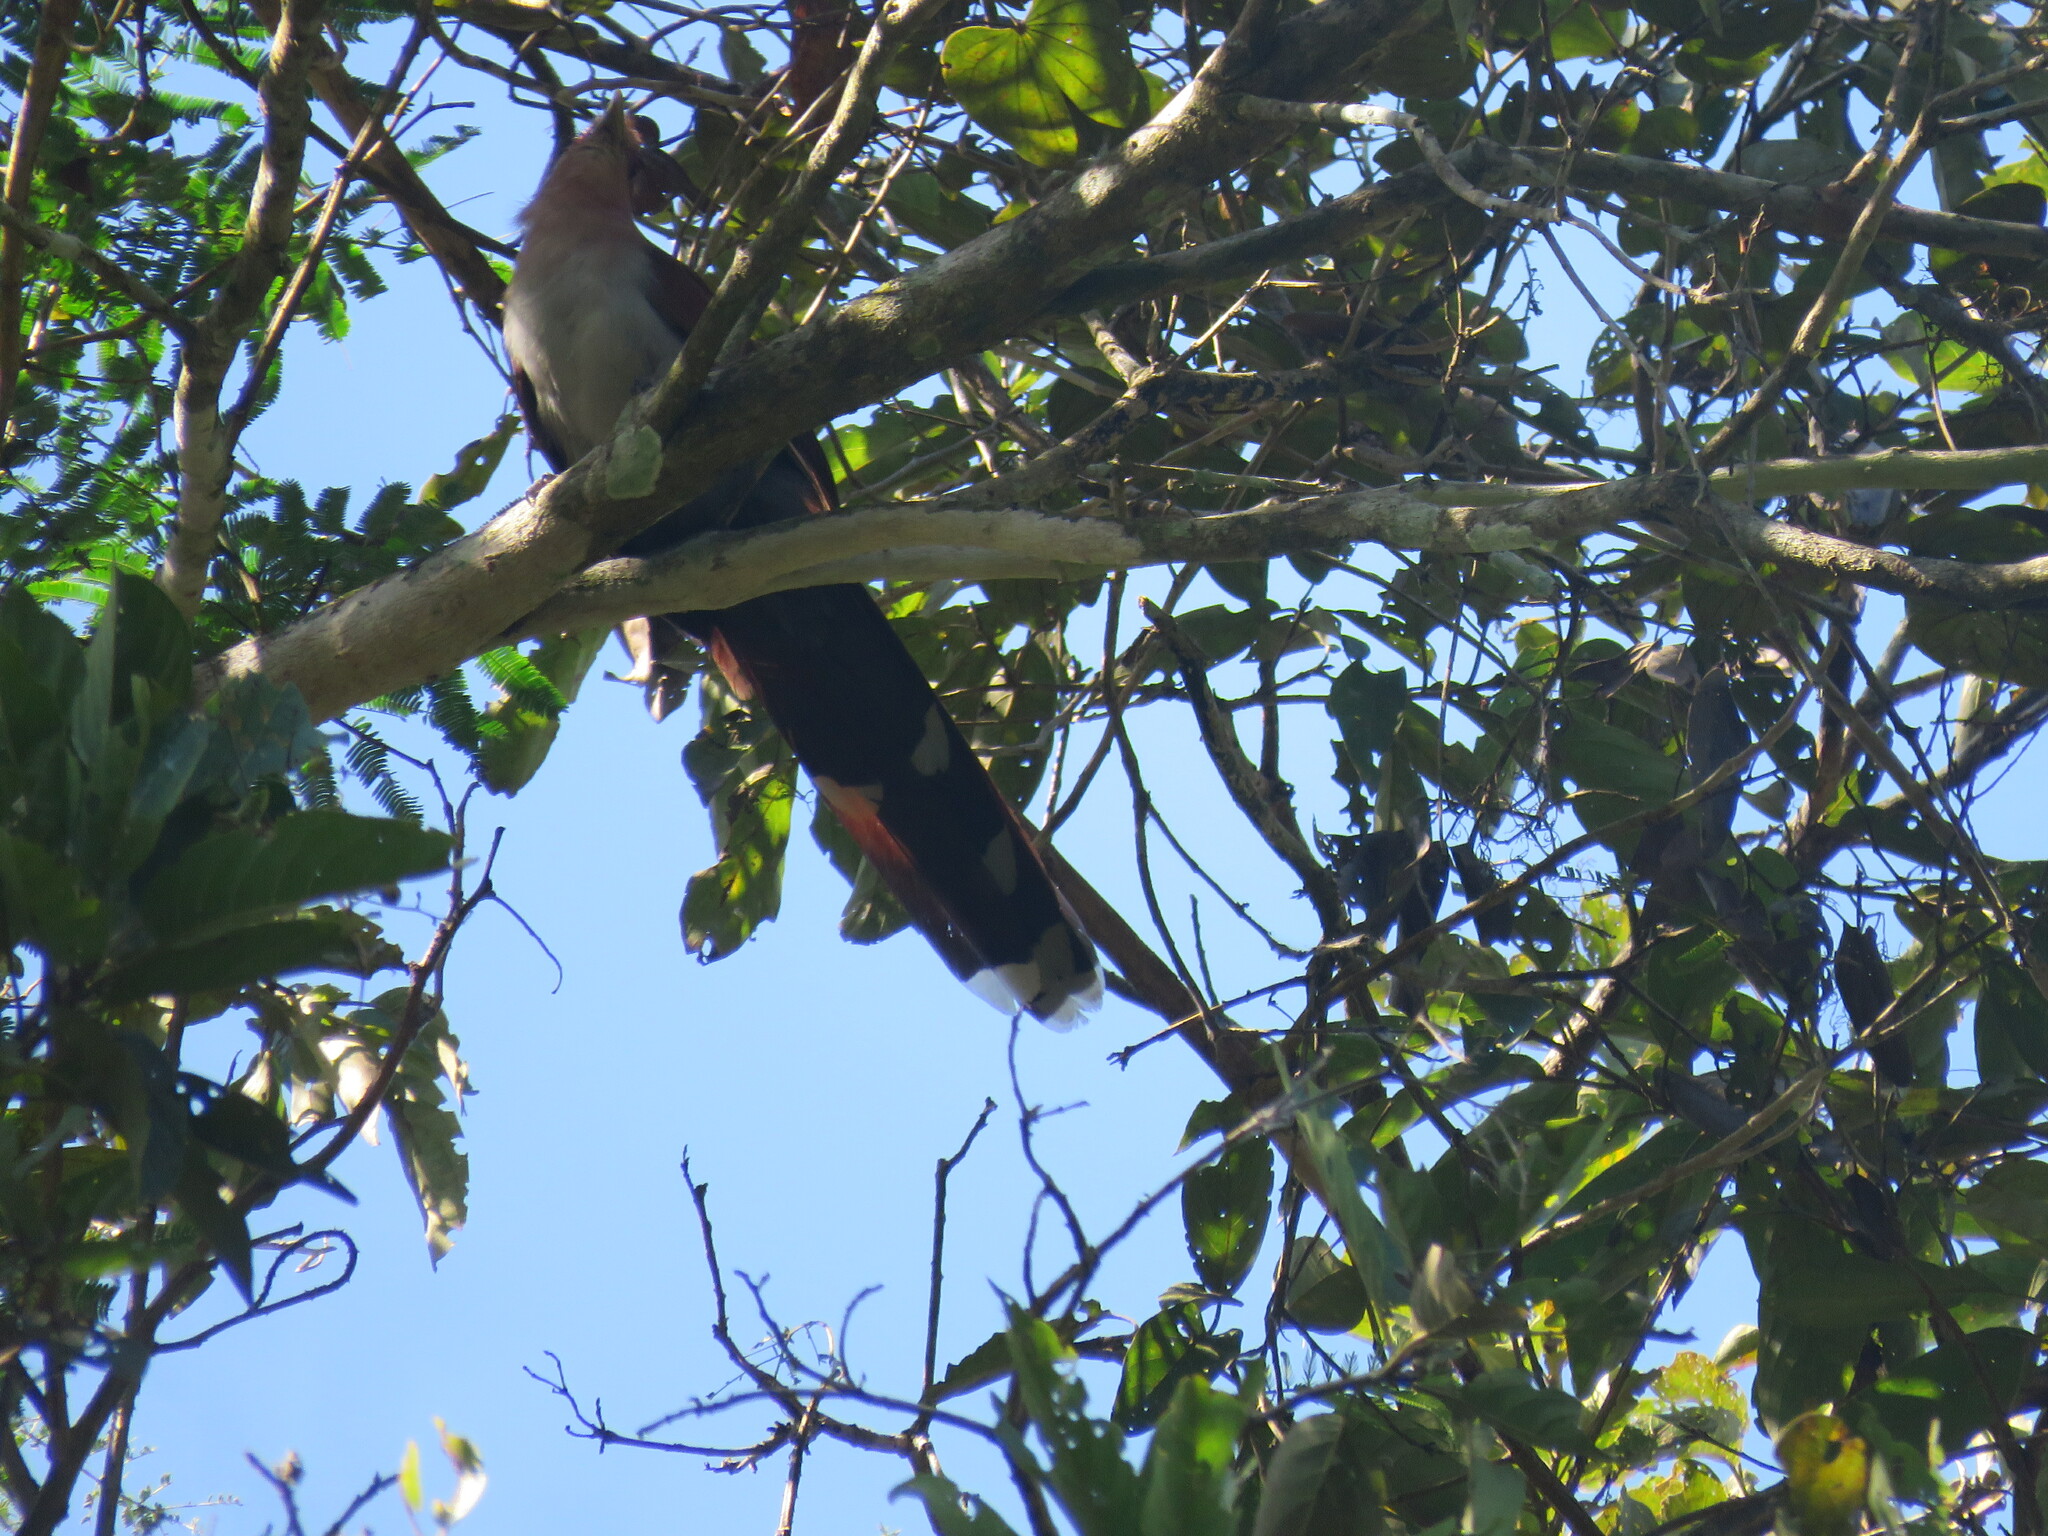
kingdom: Animalia
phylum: Chordata
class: Aves
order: Cuculiformes
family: Cuculidae
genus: Piaya
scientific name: Piaya cayana
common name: Squirrel cuckoo
